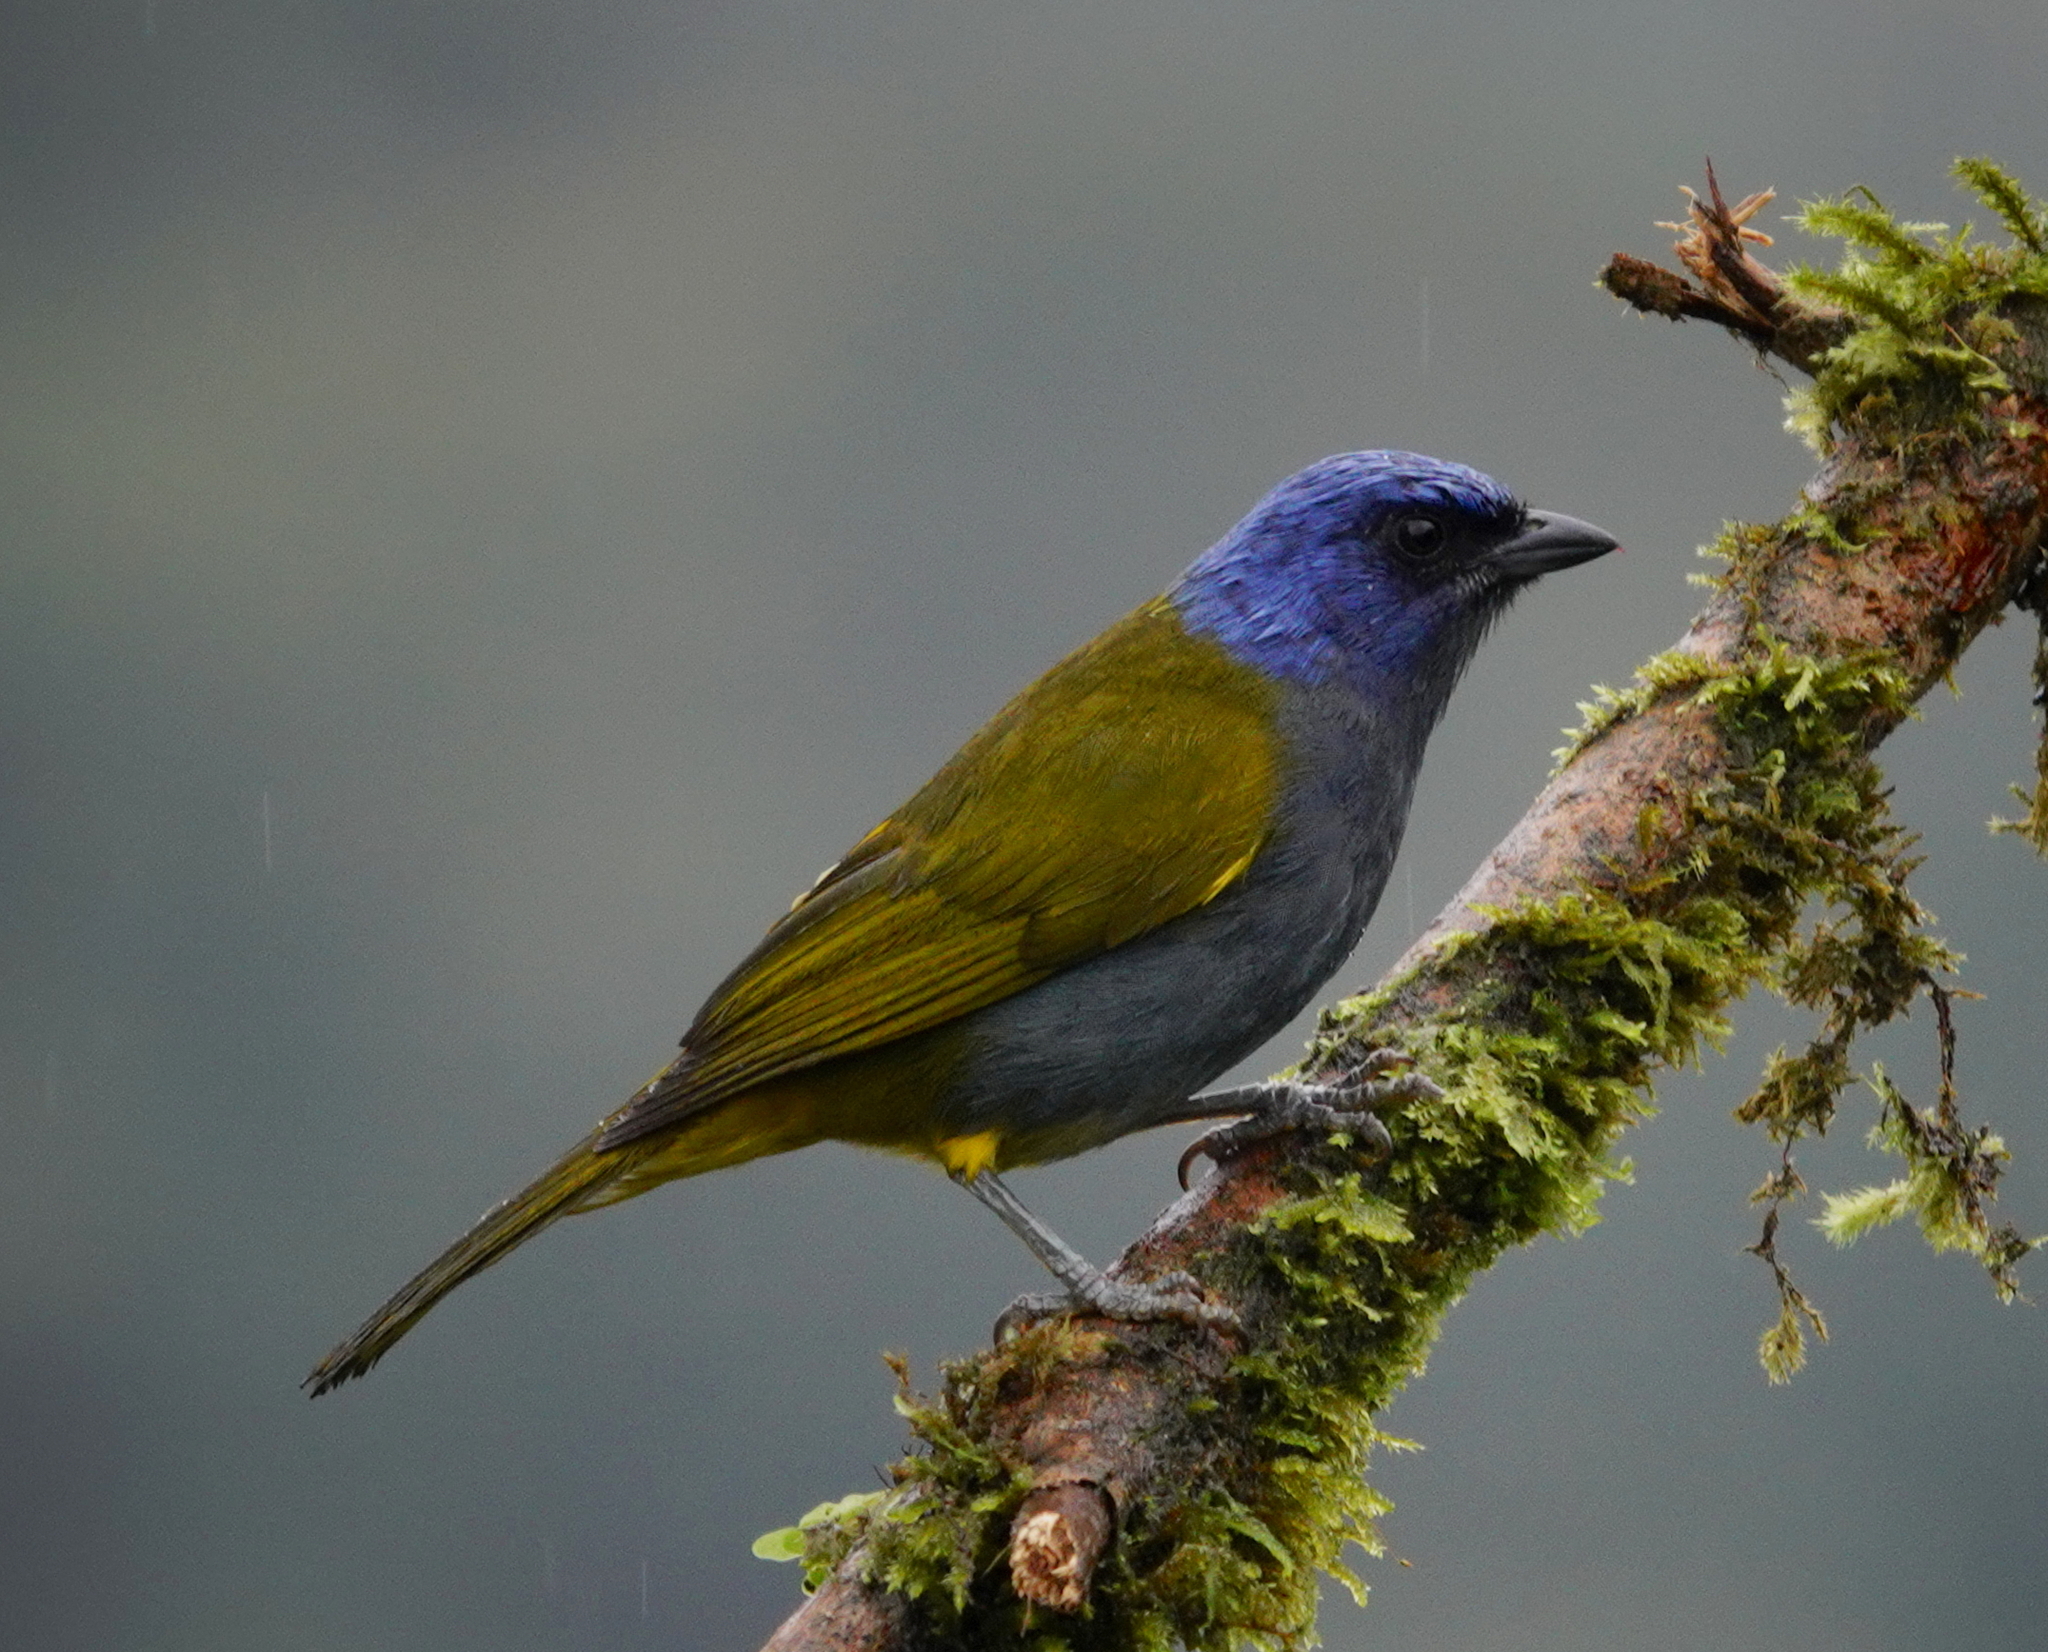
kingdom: Animalia
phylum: Chordata
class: Aves
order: Passeriformes
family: Thraupidae
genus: Sporathraupis
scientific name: Sporathraupis cyanocephala
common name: Blue-capped tanager
